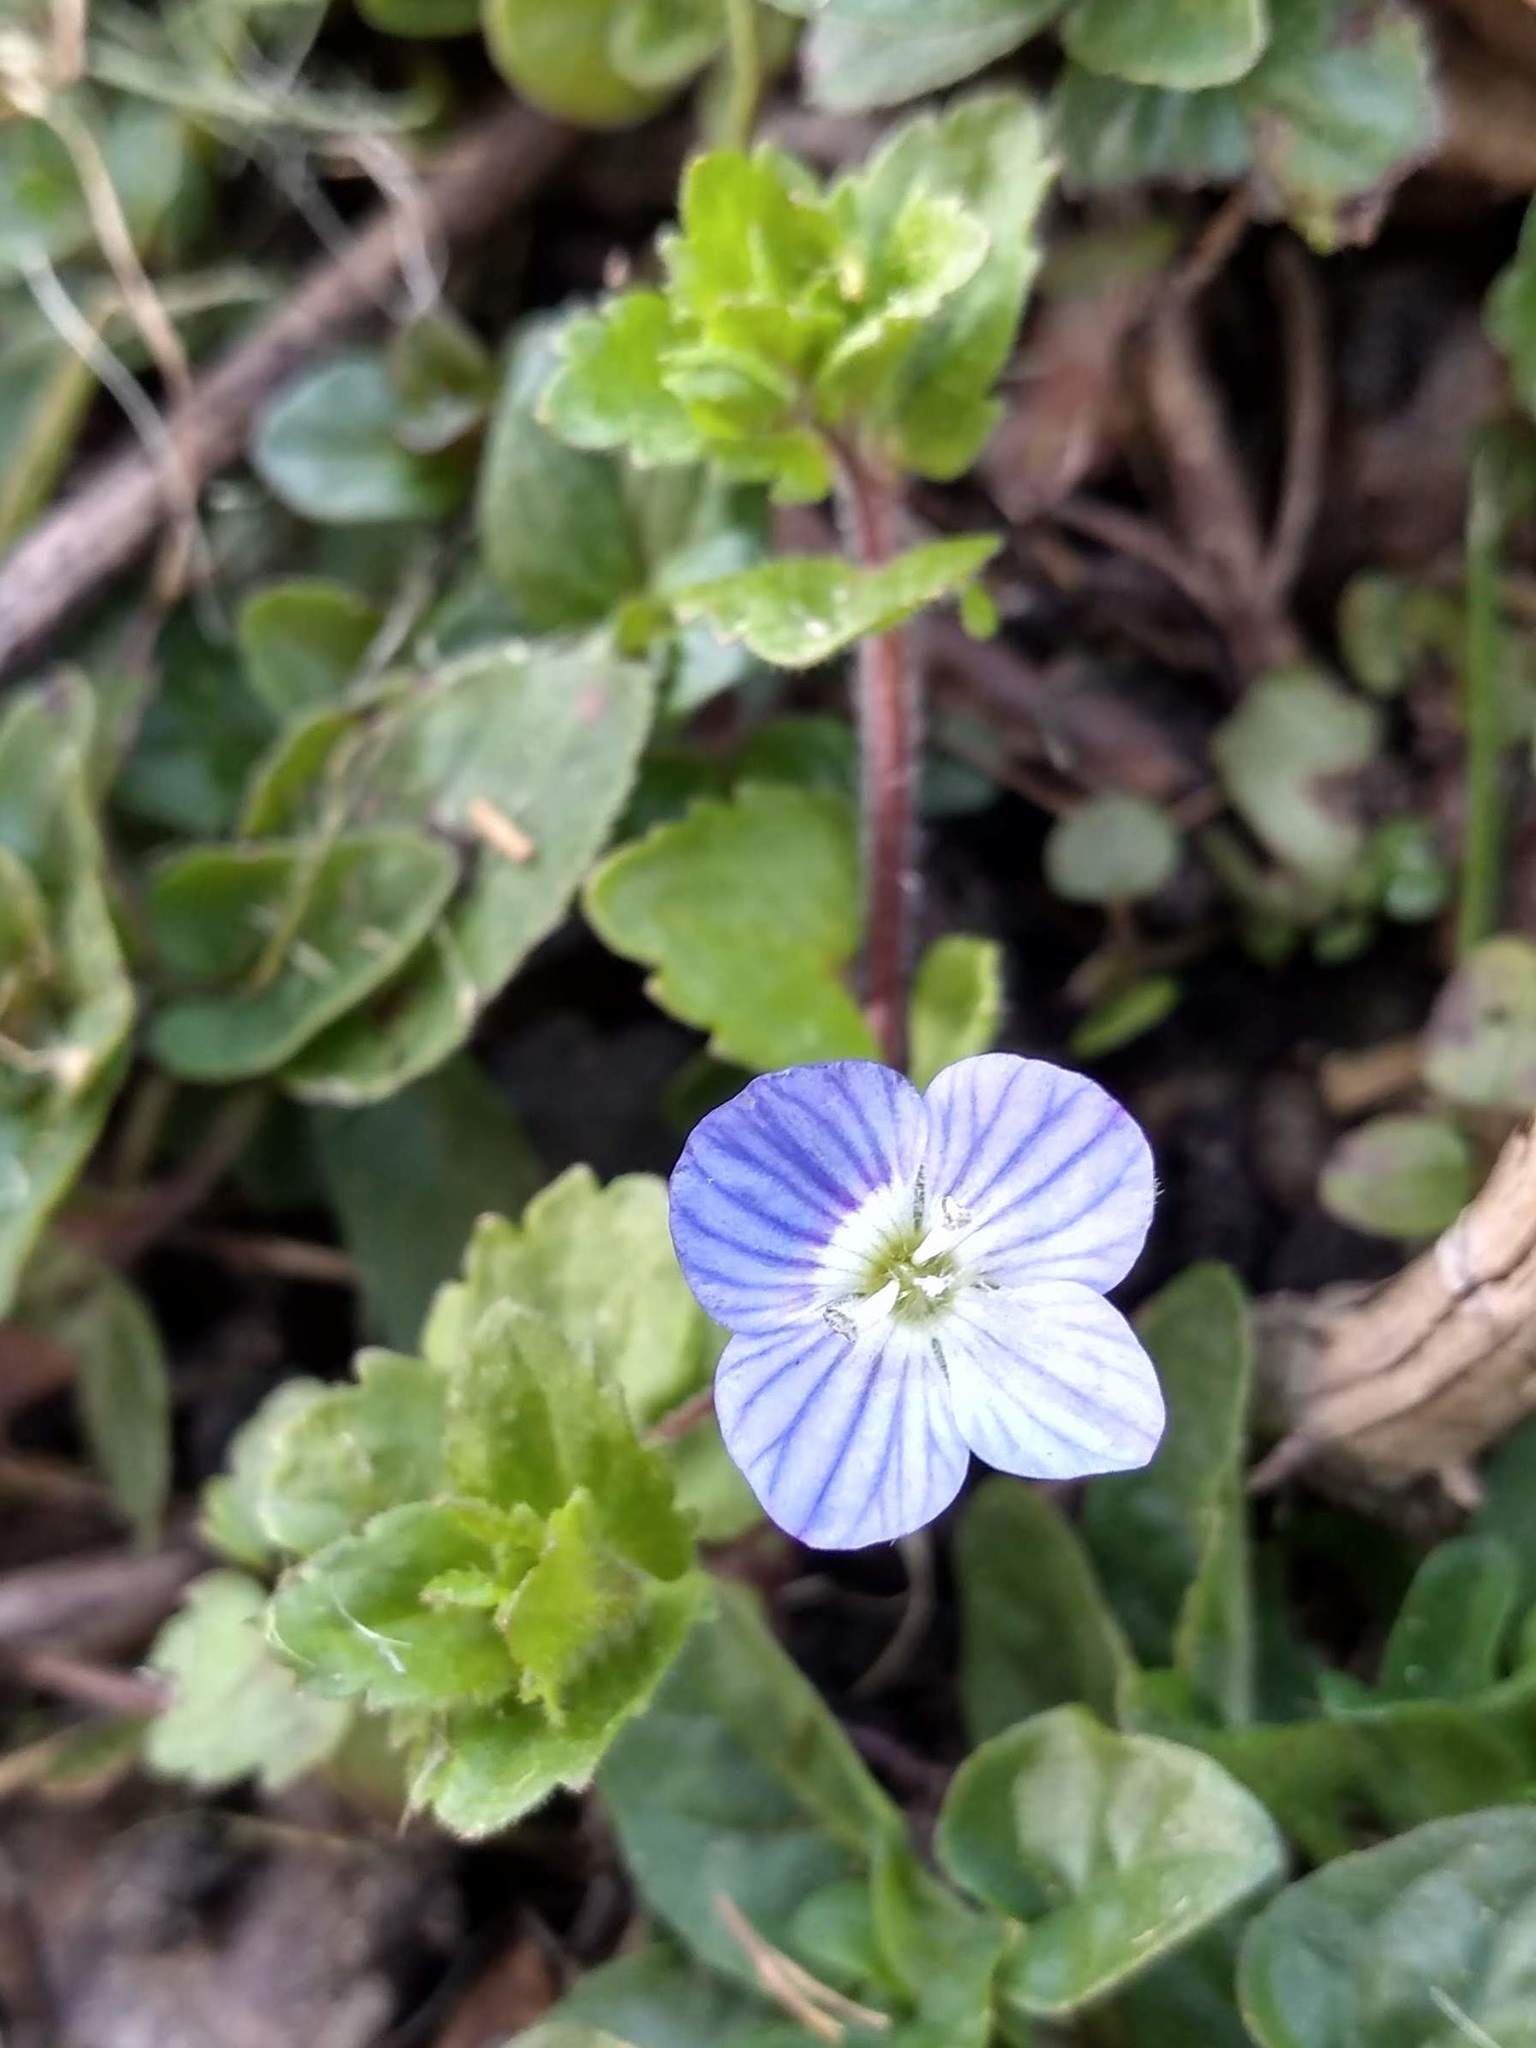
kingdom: Plantae
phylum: Tracheophyta
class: Magnoliopsida
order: Lamiales
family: Plantaginaceae
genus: Veronica
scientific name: Veronica persica
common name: Common field-speedwell
